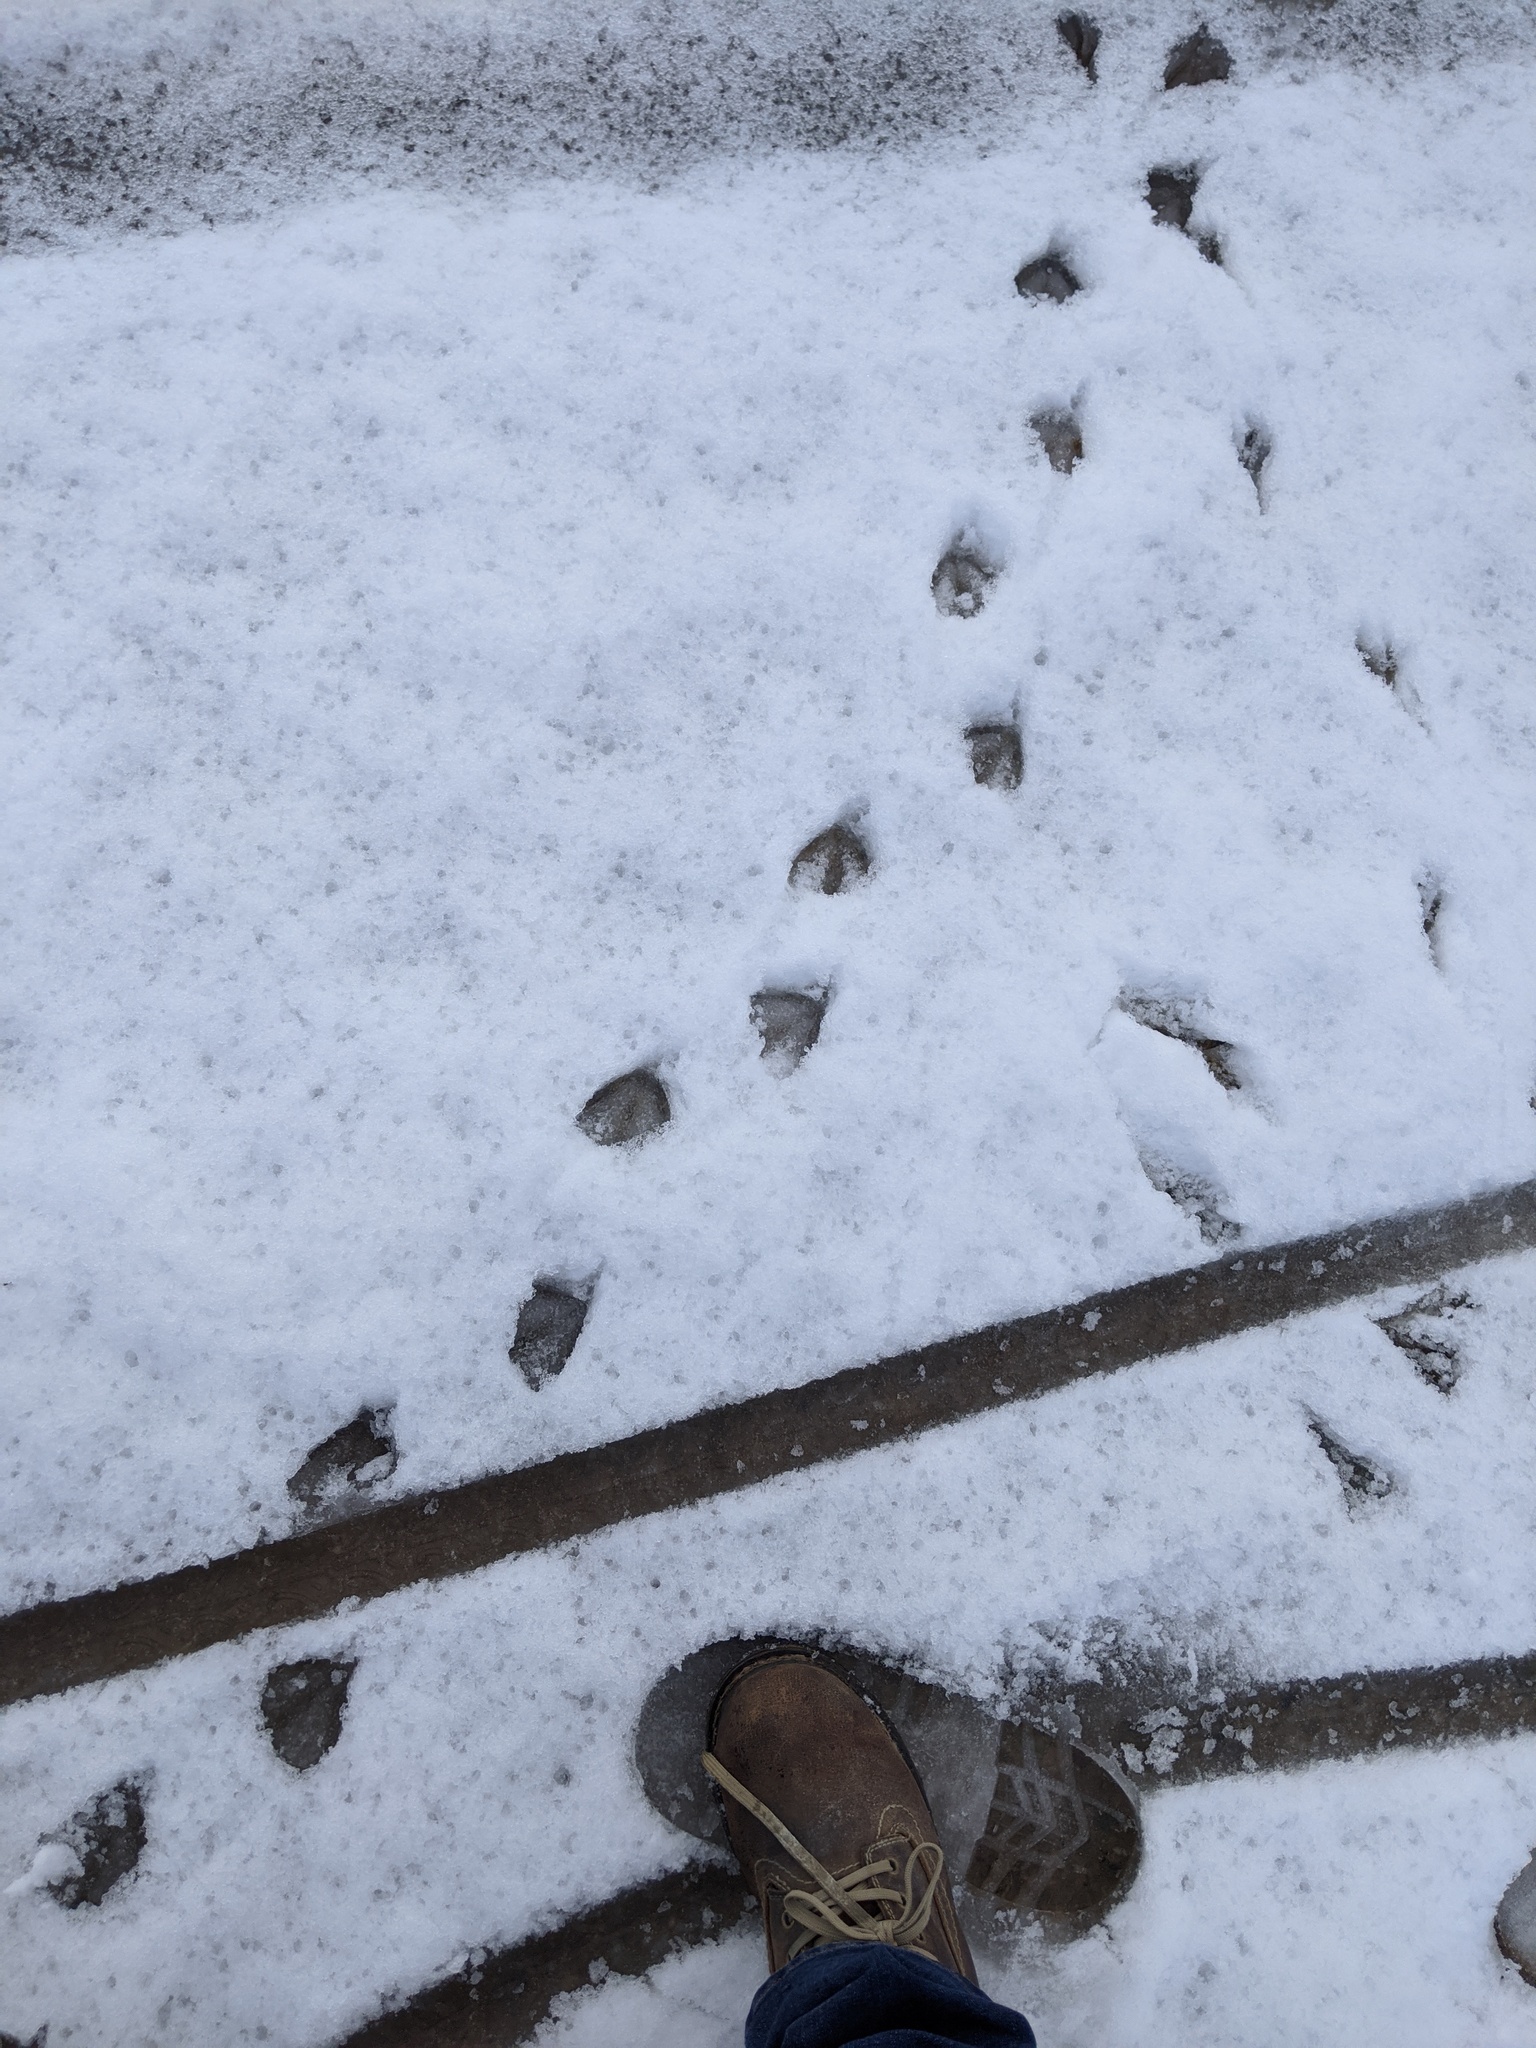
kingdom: Animalia
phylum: Chordata
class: Aves
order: Anseriformes
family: Anatidae
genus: Anas
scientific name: Anas rubripes
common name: American black duck
